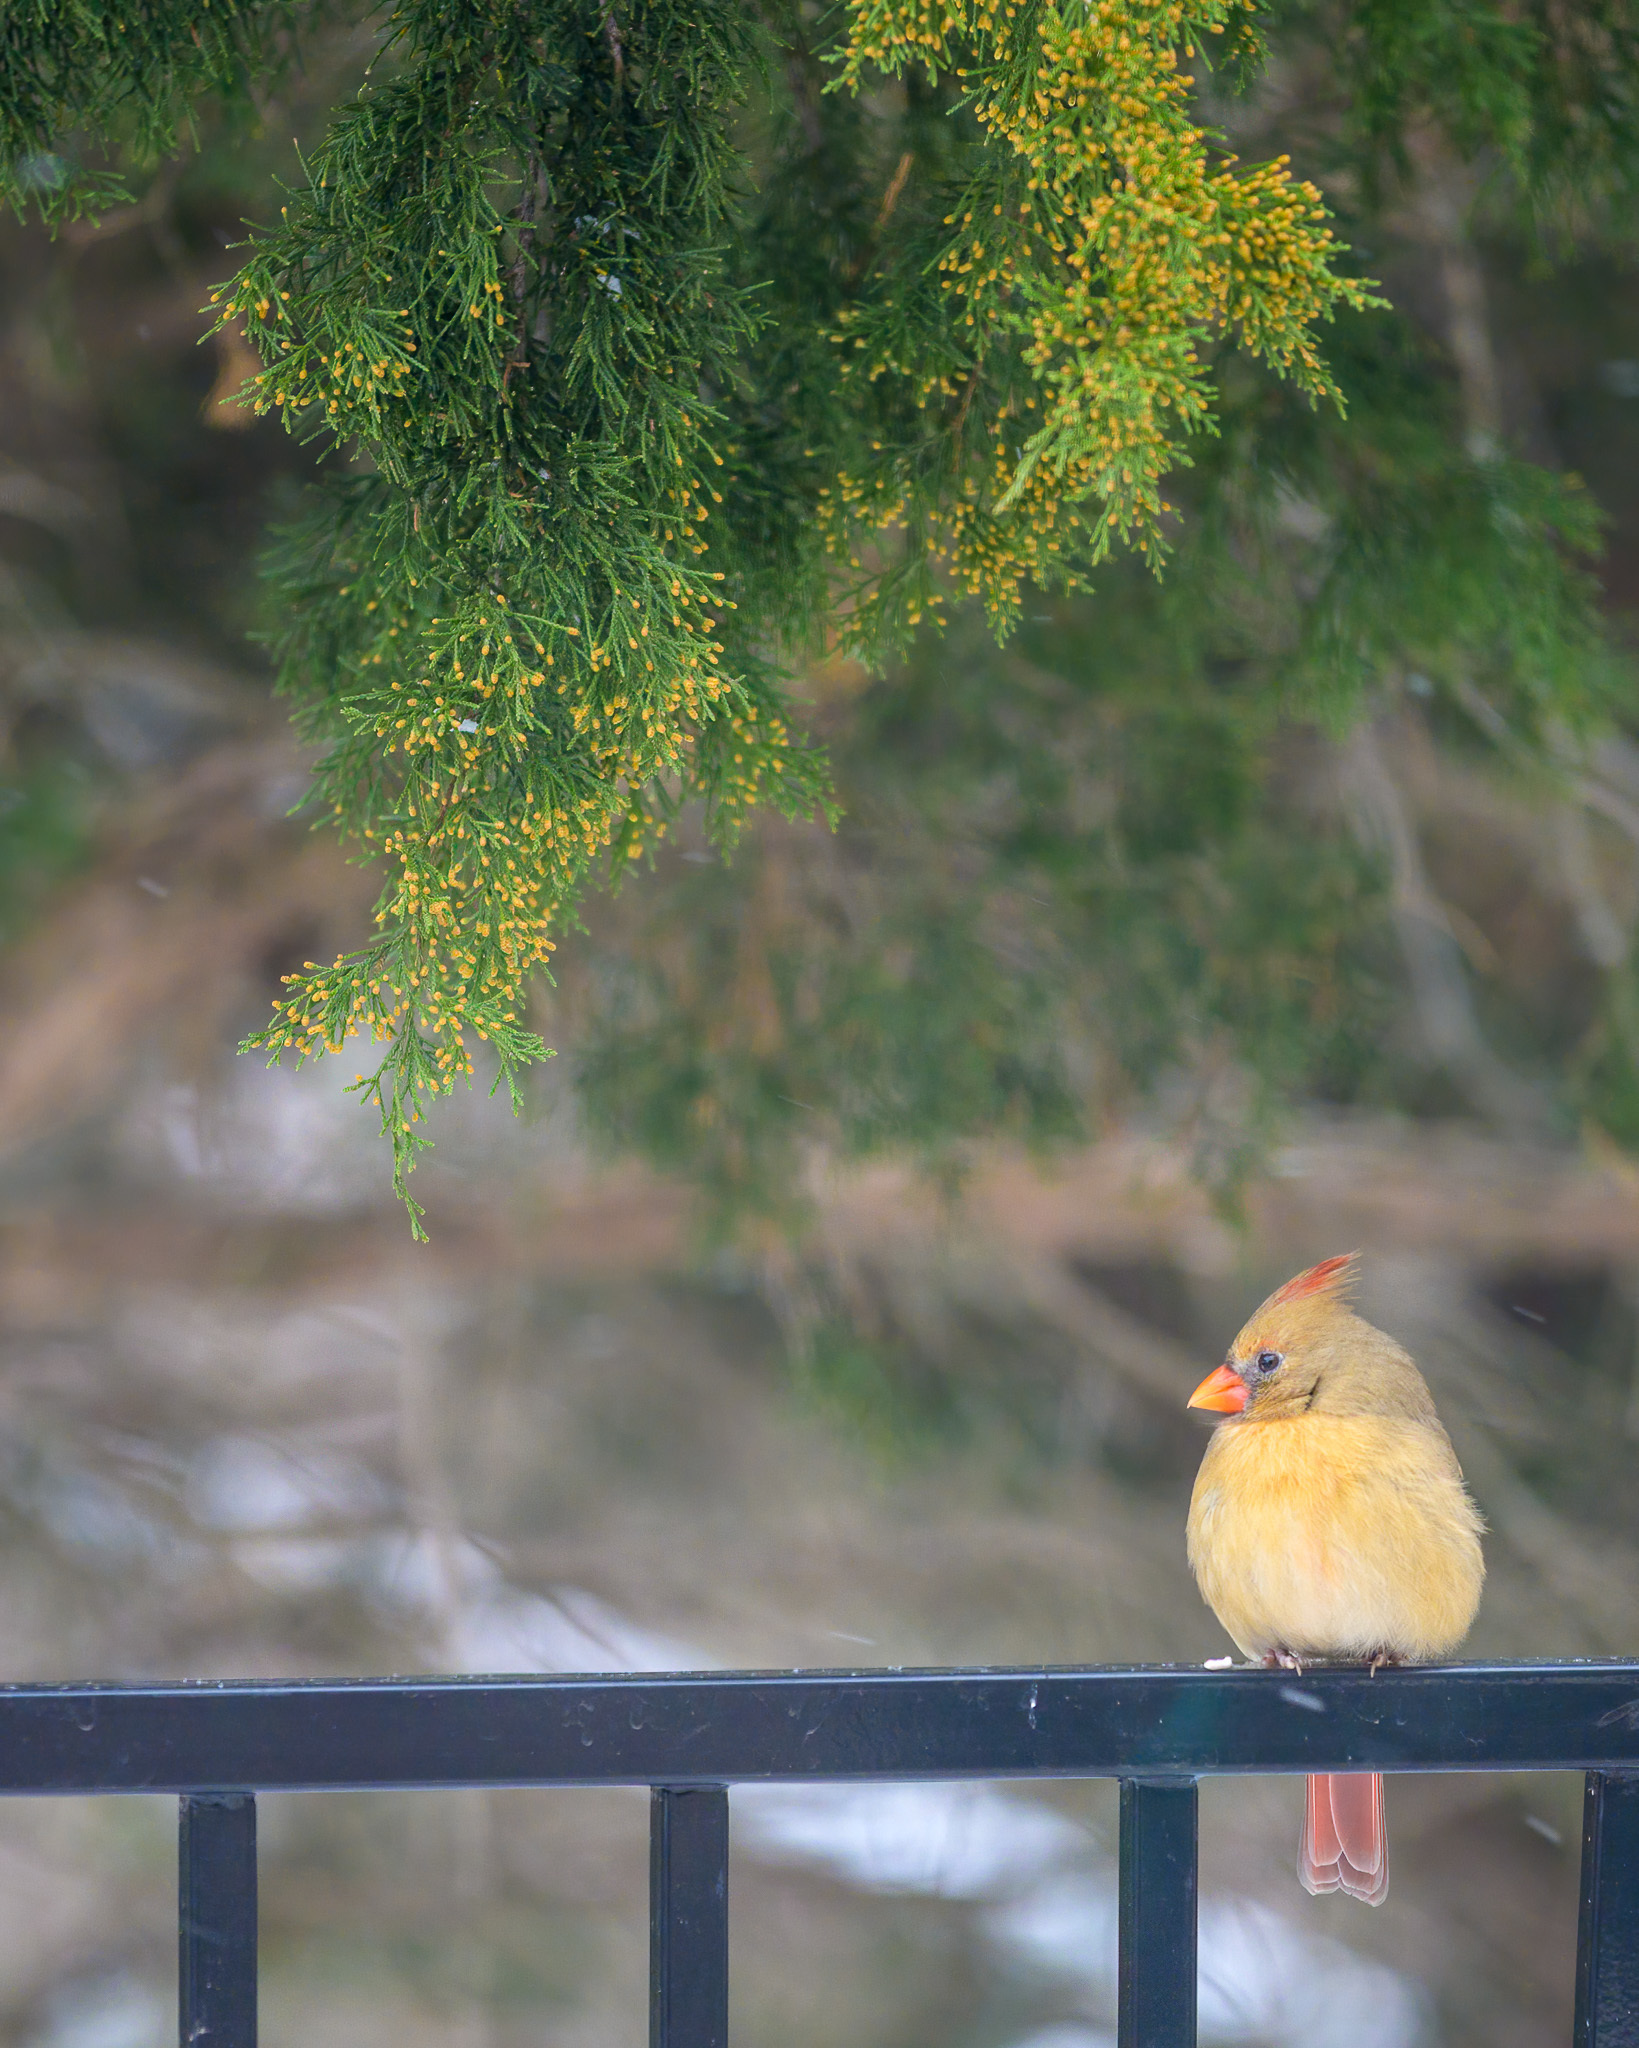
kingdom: Animalia
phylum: Chordata
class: Aves
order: Passeriformes
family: Cardinalidae
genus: Cardinalis
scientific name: Cardinalis cardinalis
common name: Northern cardinal
